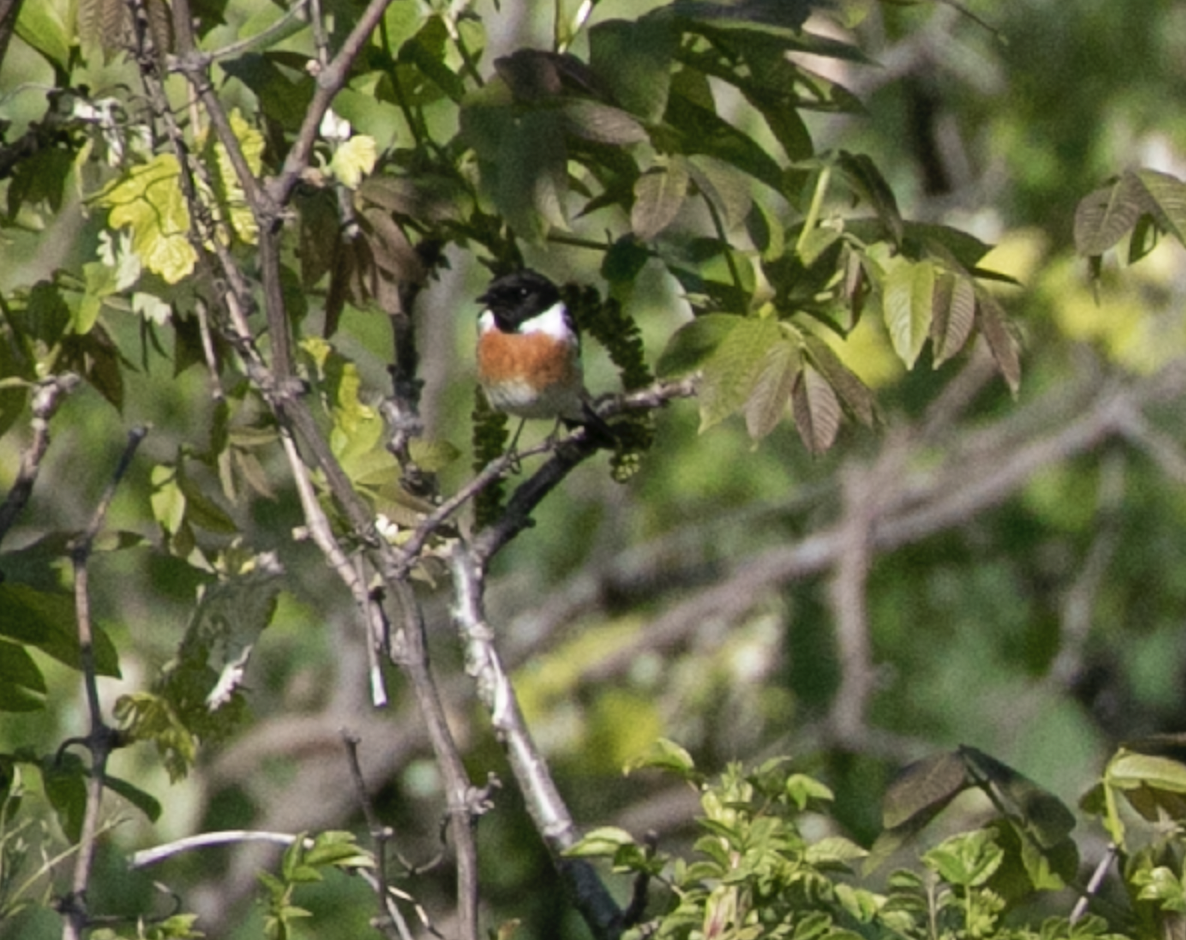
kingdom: Animalia
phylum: Chordata
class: Aves
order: Passeriformes
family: Muscicapidae
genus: Saxicola
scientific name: Saxicola rubicola
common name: European stonechat
